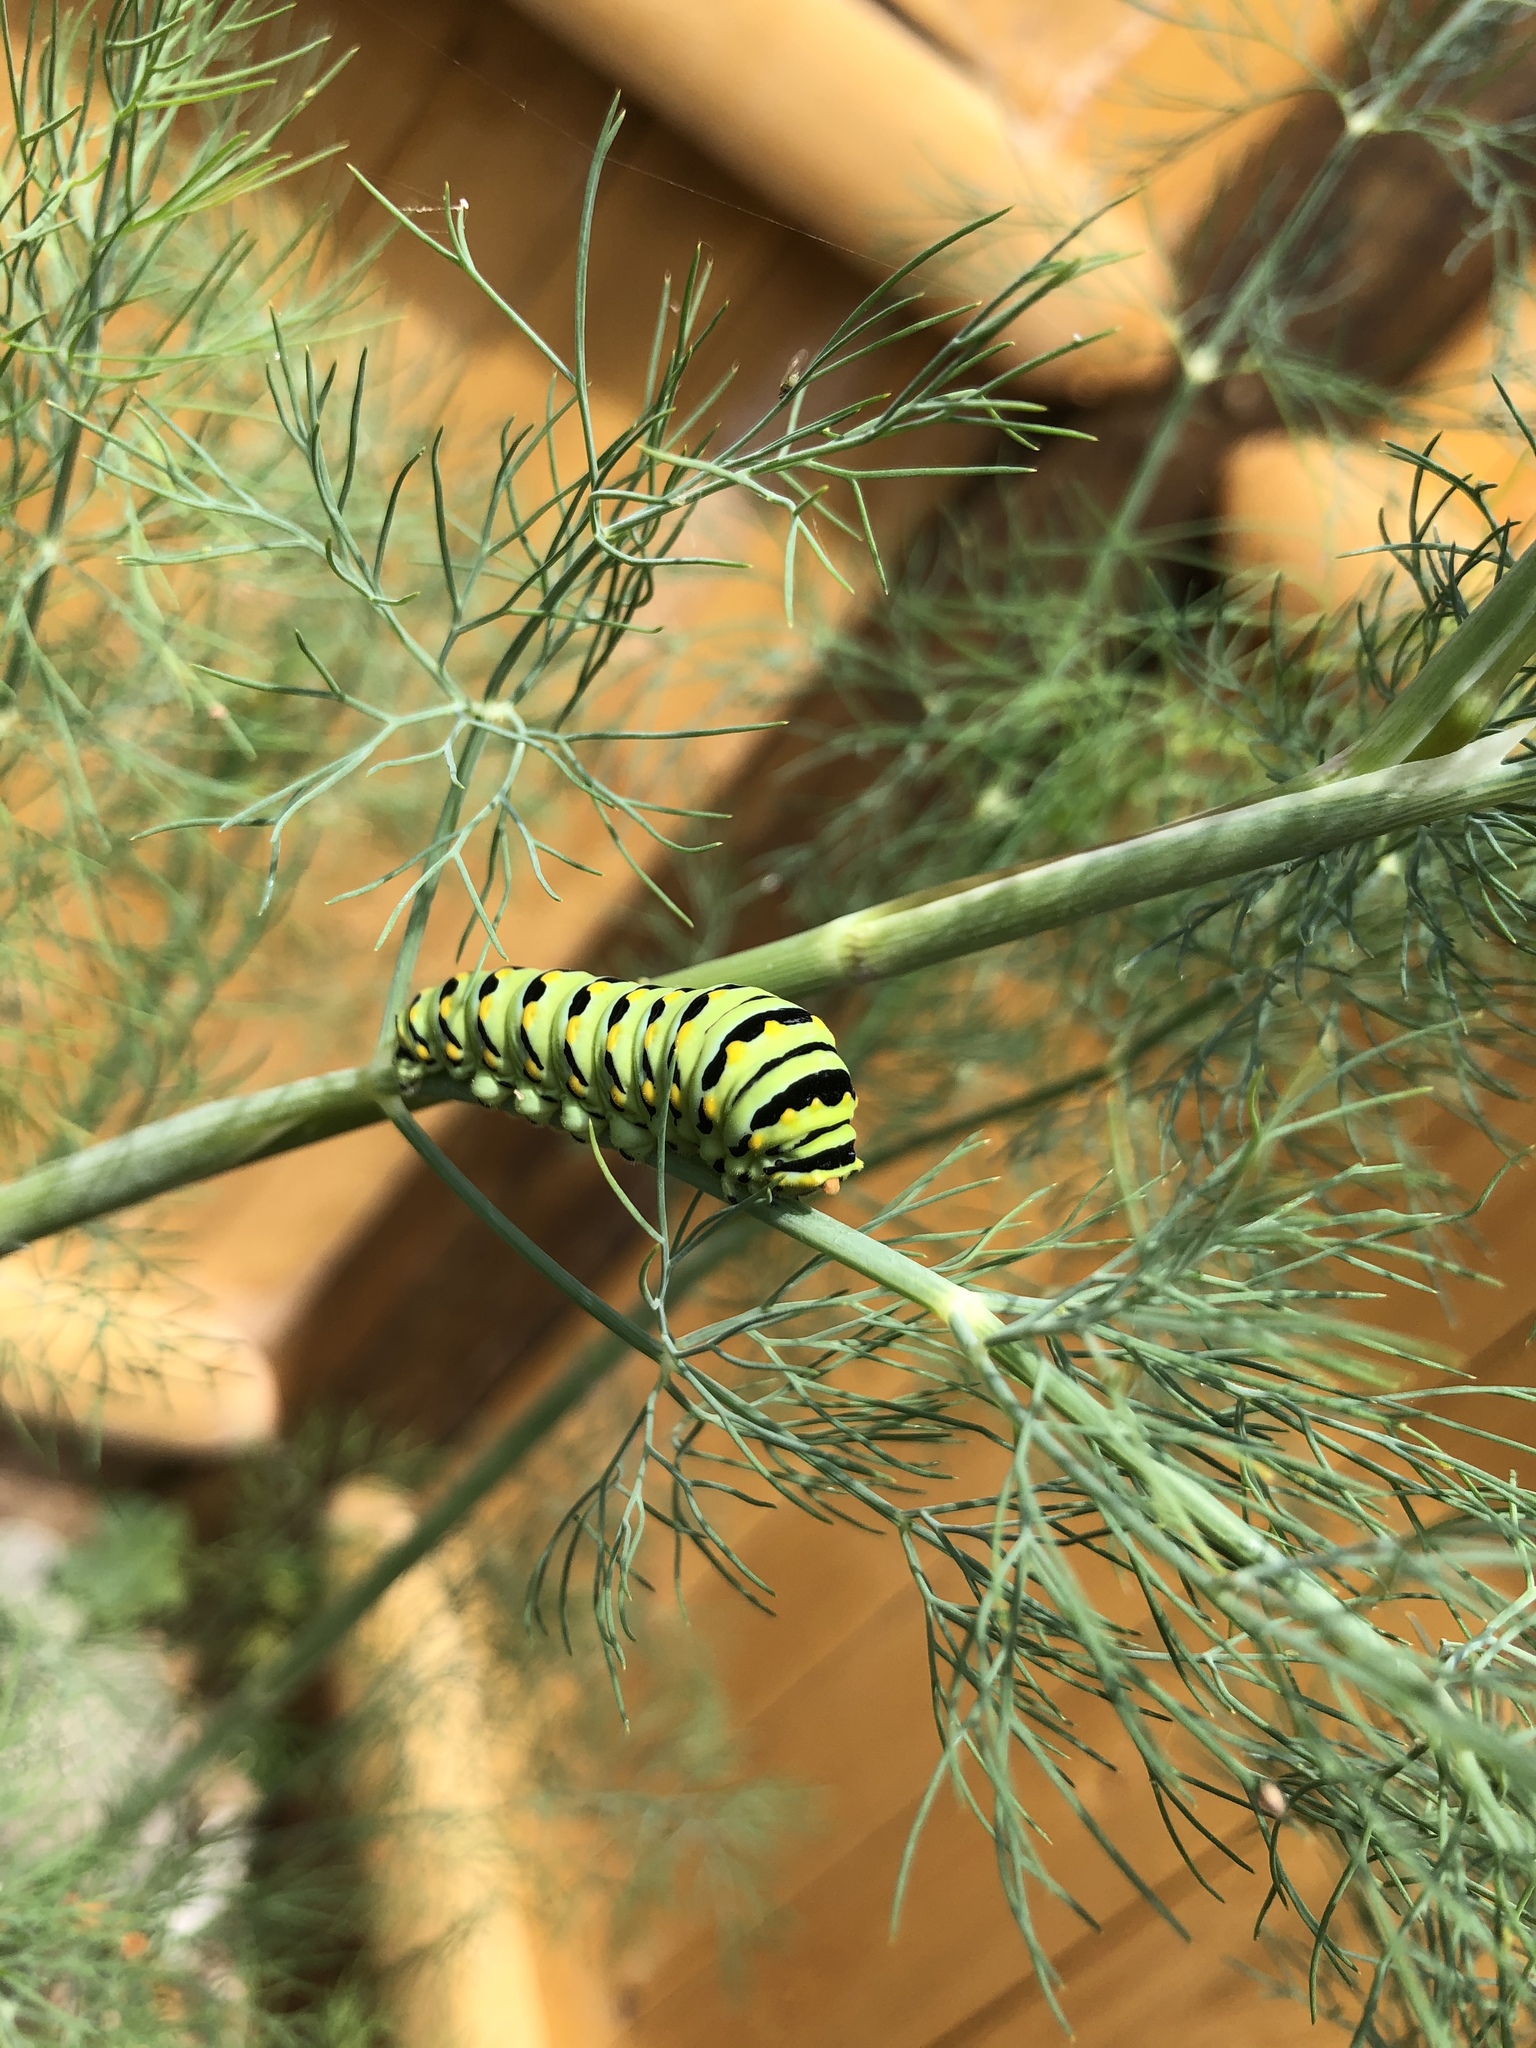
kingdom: Animalia
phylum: Arthropoda
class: Insecta
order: Lepidoptera
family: Papilionidae
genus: Papilio
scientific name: Papilio polyxenes
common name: Black swallowtail
